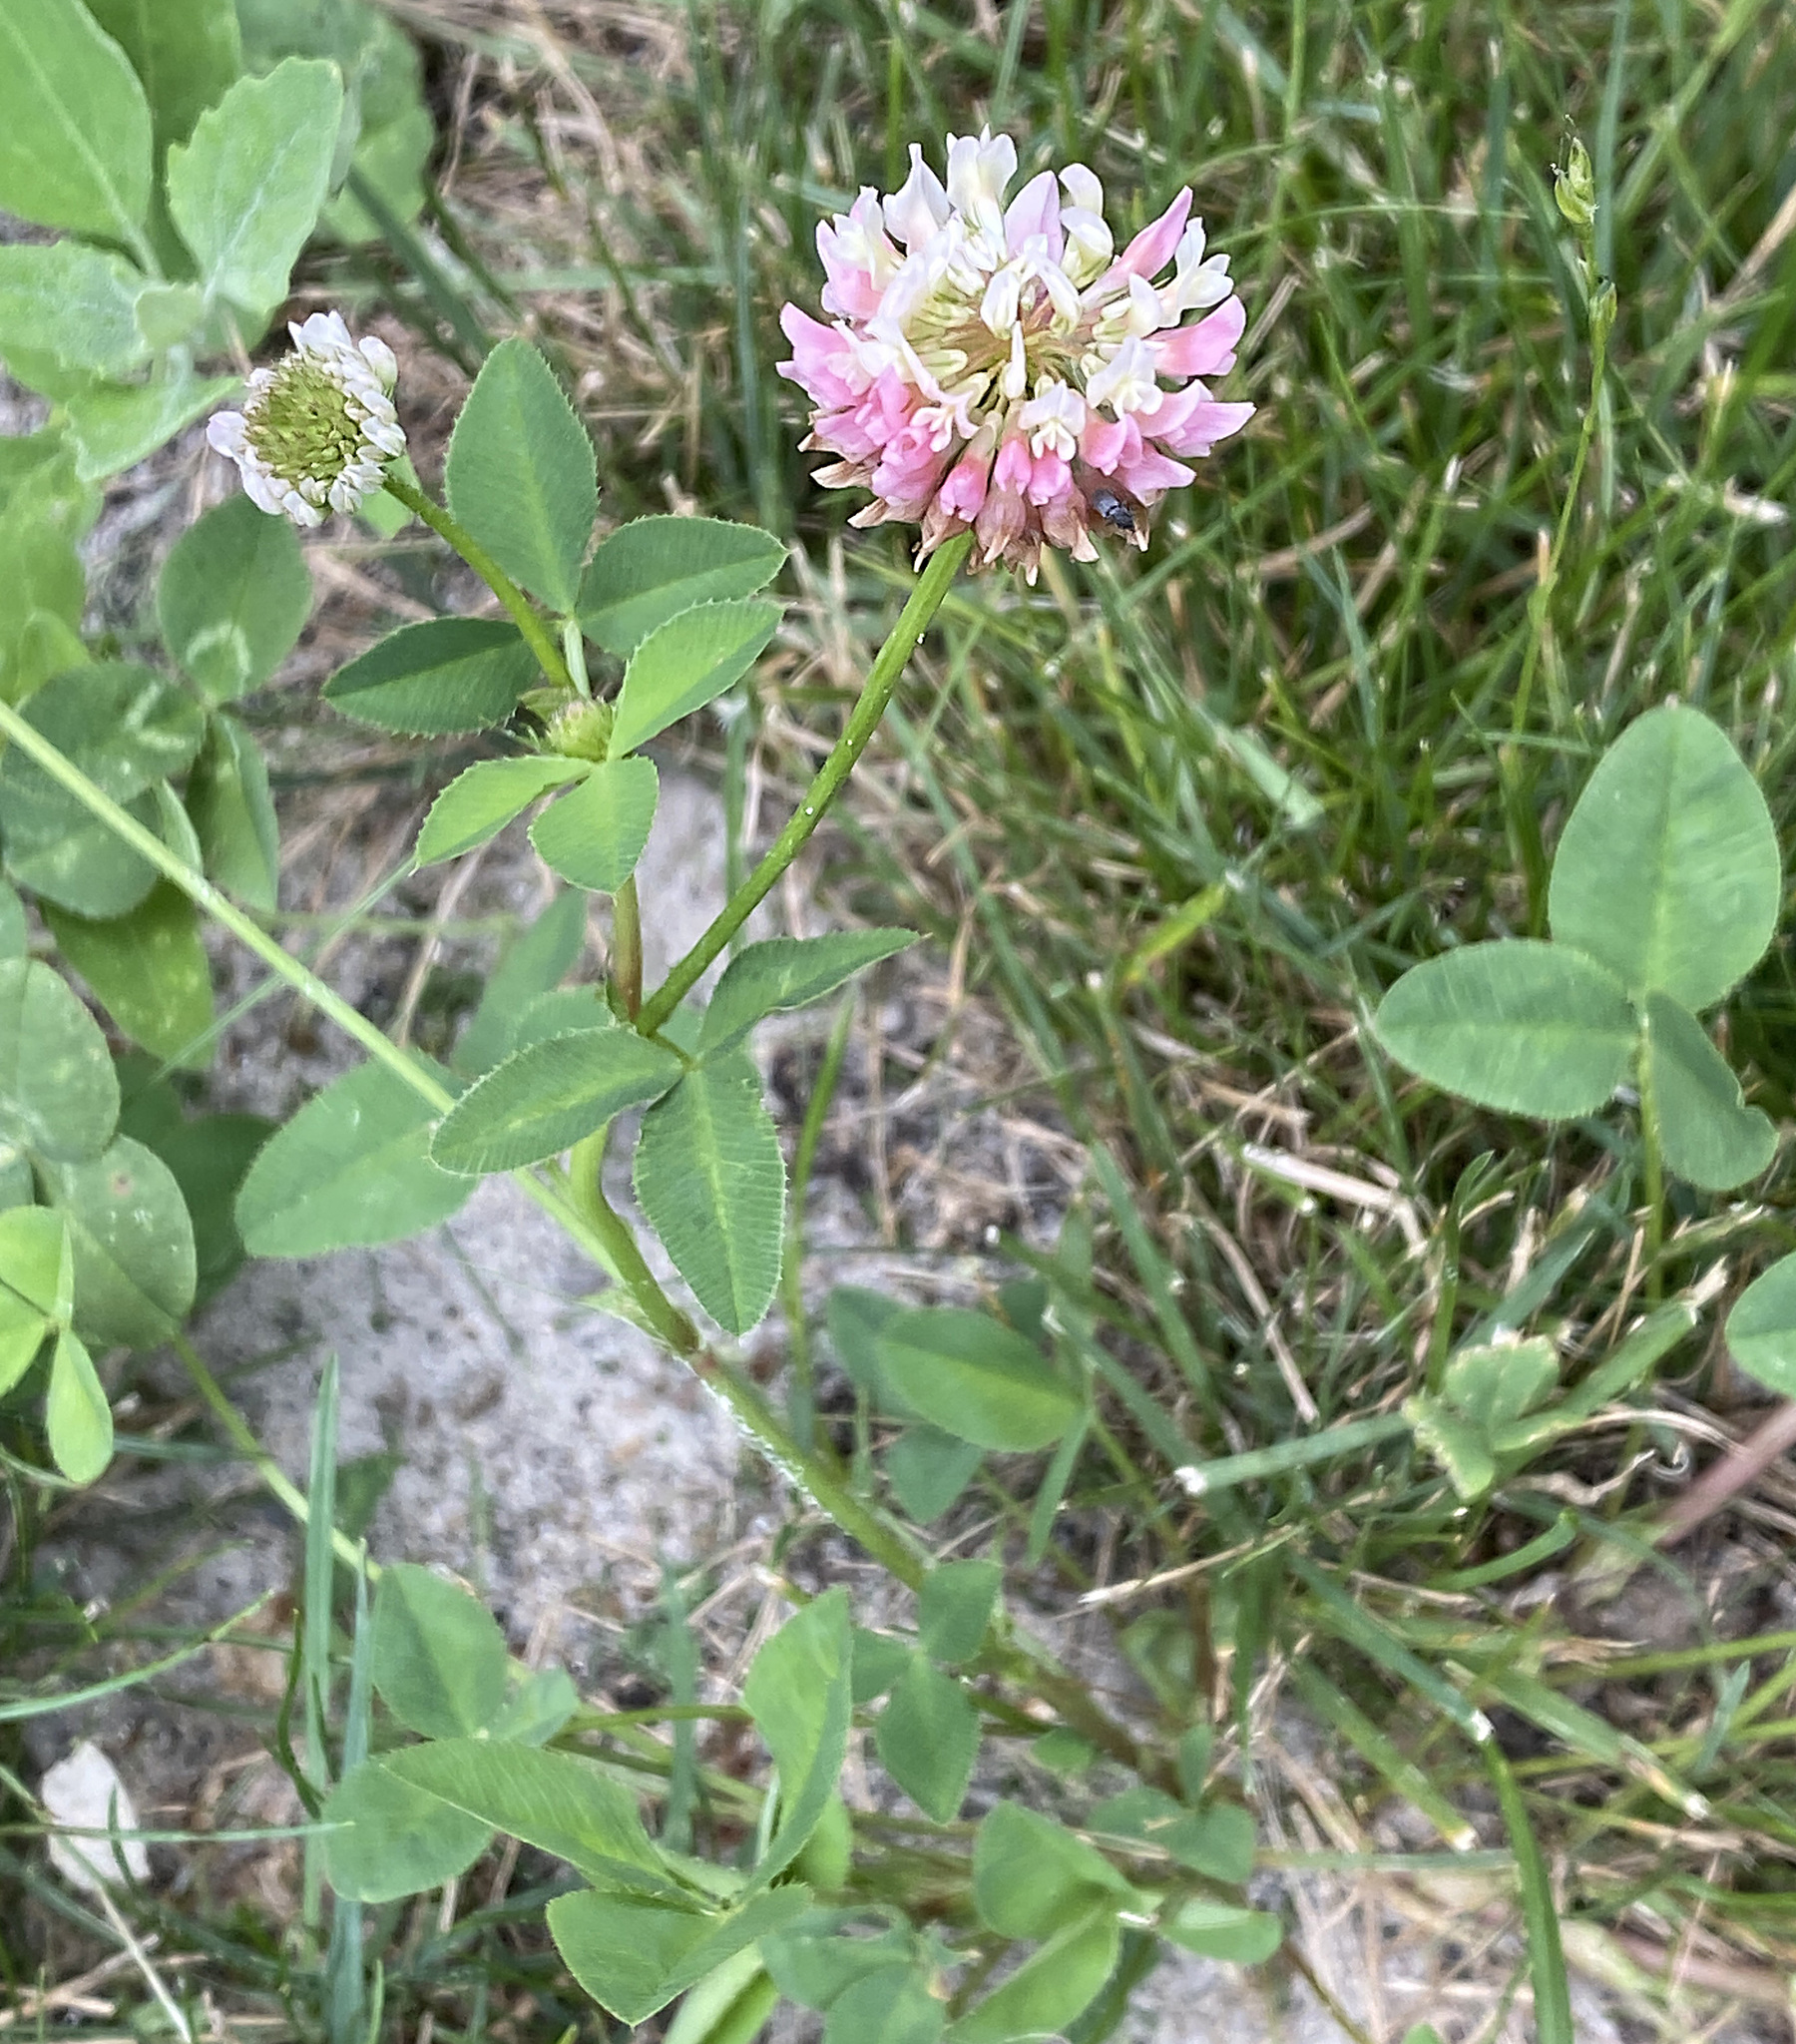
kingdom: Plantae
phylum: Tracheophyta
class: Magnoliopsida
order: Fabales
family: Fabaceae
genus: Trifolium
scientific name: Trifolium hybridum
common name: Alsike clover
